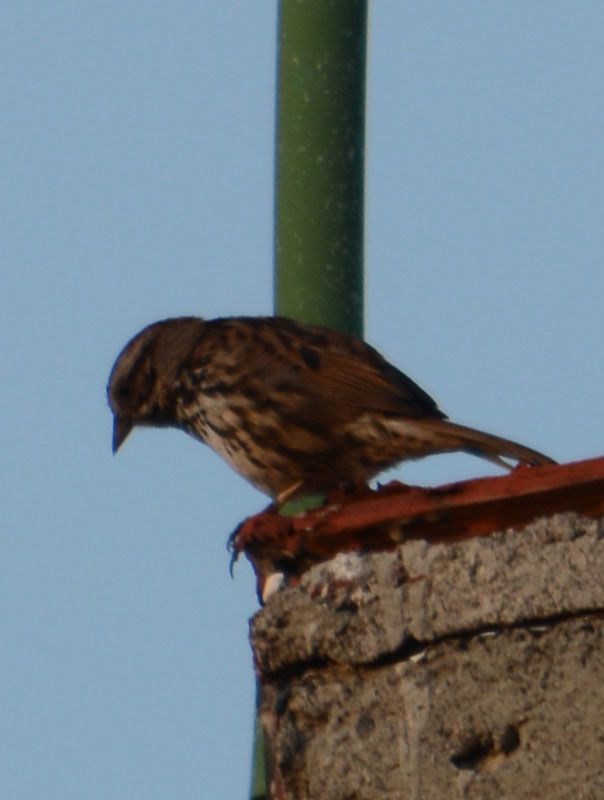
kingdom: Animalia
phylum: Chordata
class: Aves
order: Passeriformes
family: Passerellidae
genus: Melospiza
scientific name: Melospiza melodia
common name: Song sparrow
